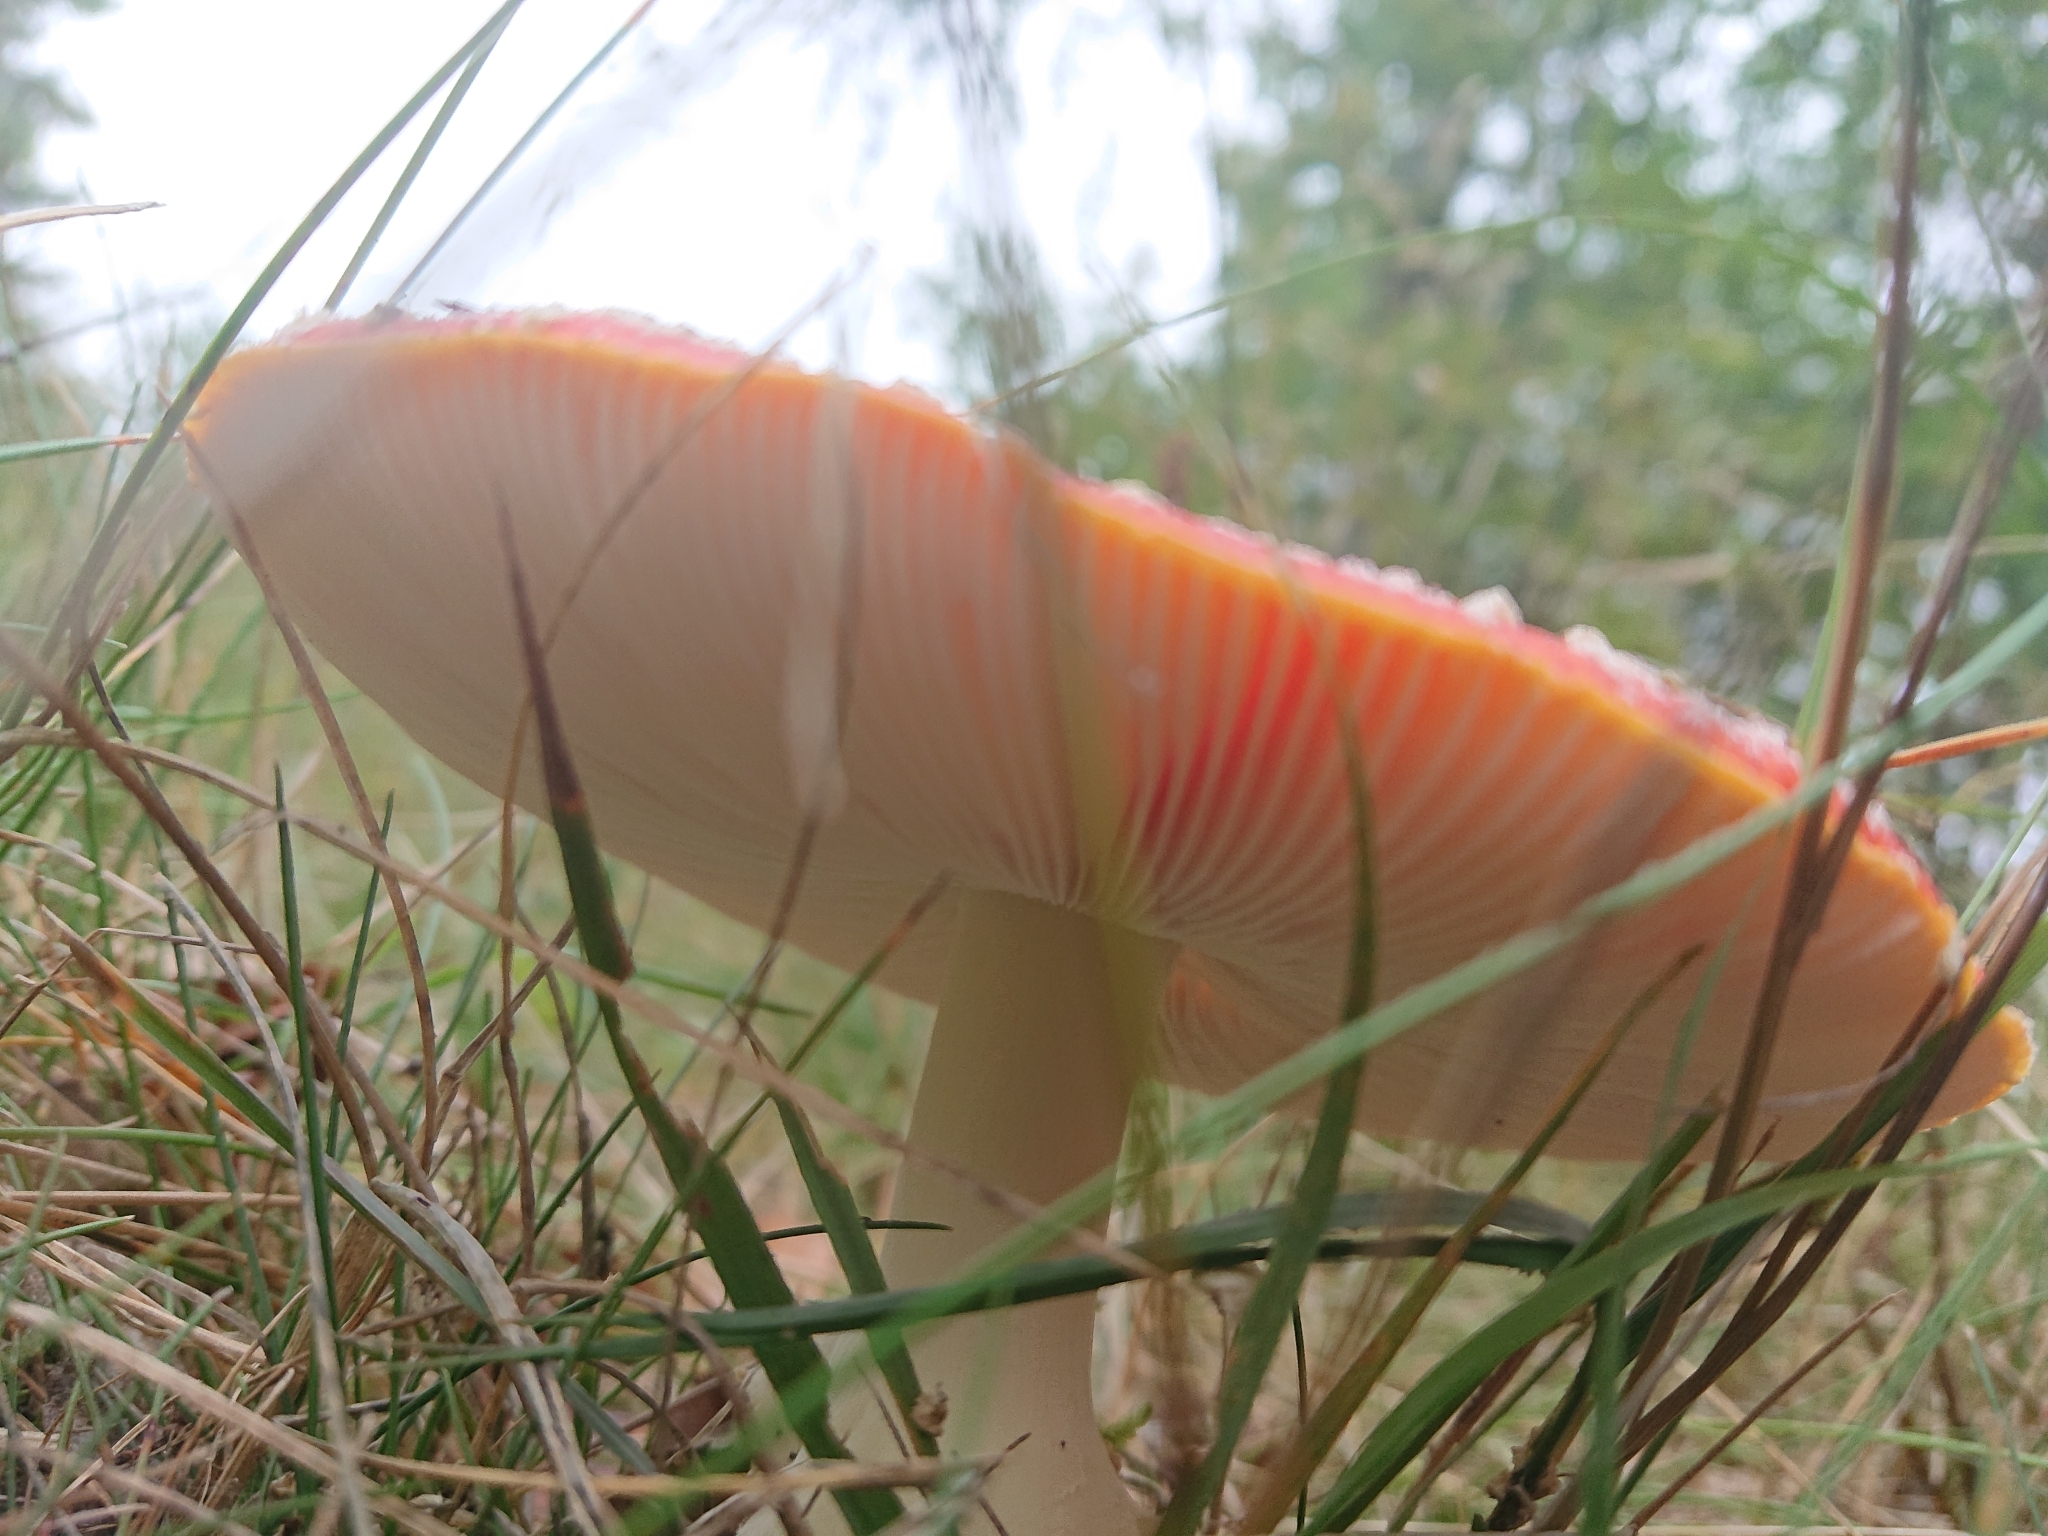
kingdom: Fungi
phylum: Basidiomycota
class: Agaricomycetes
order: Agaricales
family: Amanitaceae
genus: Amanita
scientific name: Amanita muscaria
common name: Fly agaric
